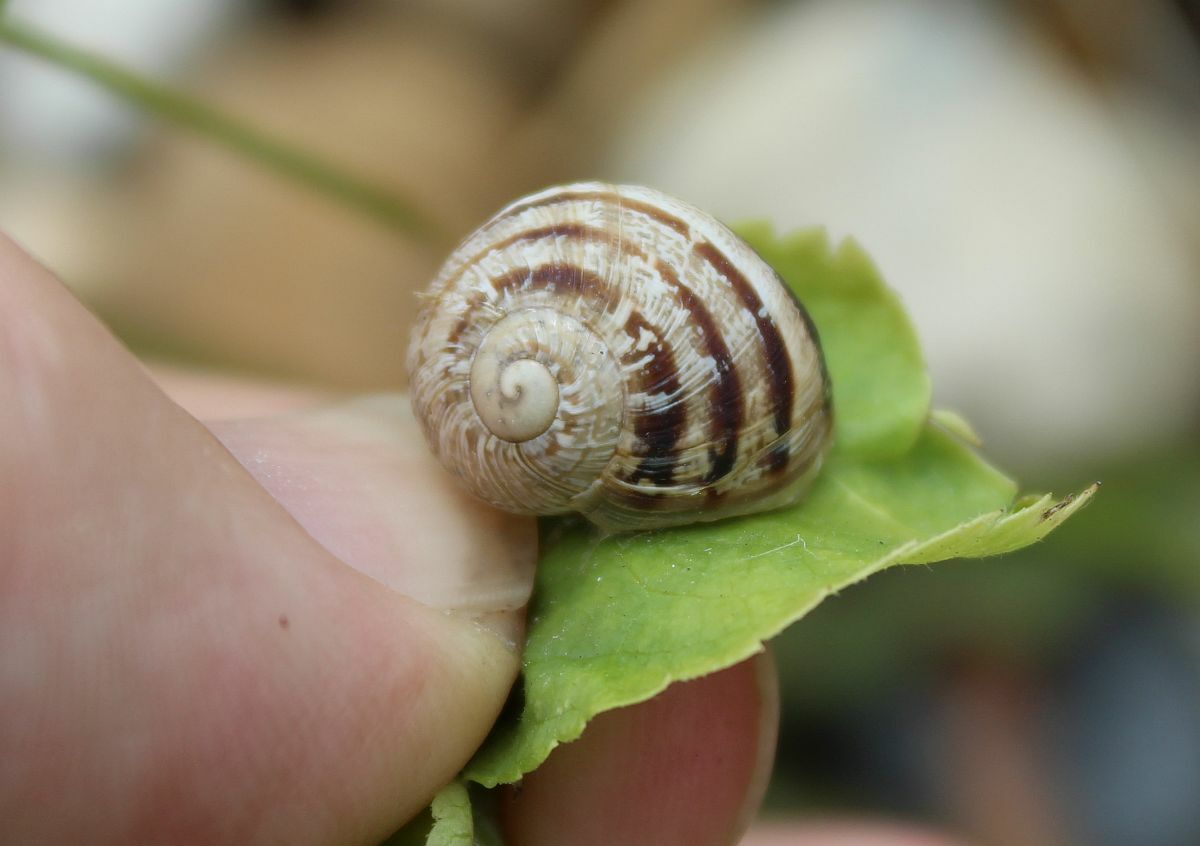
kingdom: Animalia
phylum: Mollusca
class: Gastropoda
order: Stylommatophora
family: Helicidae
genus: Cornu
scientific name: Cornu aspersum
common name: Brown garden snail
